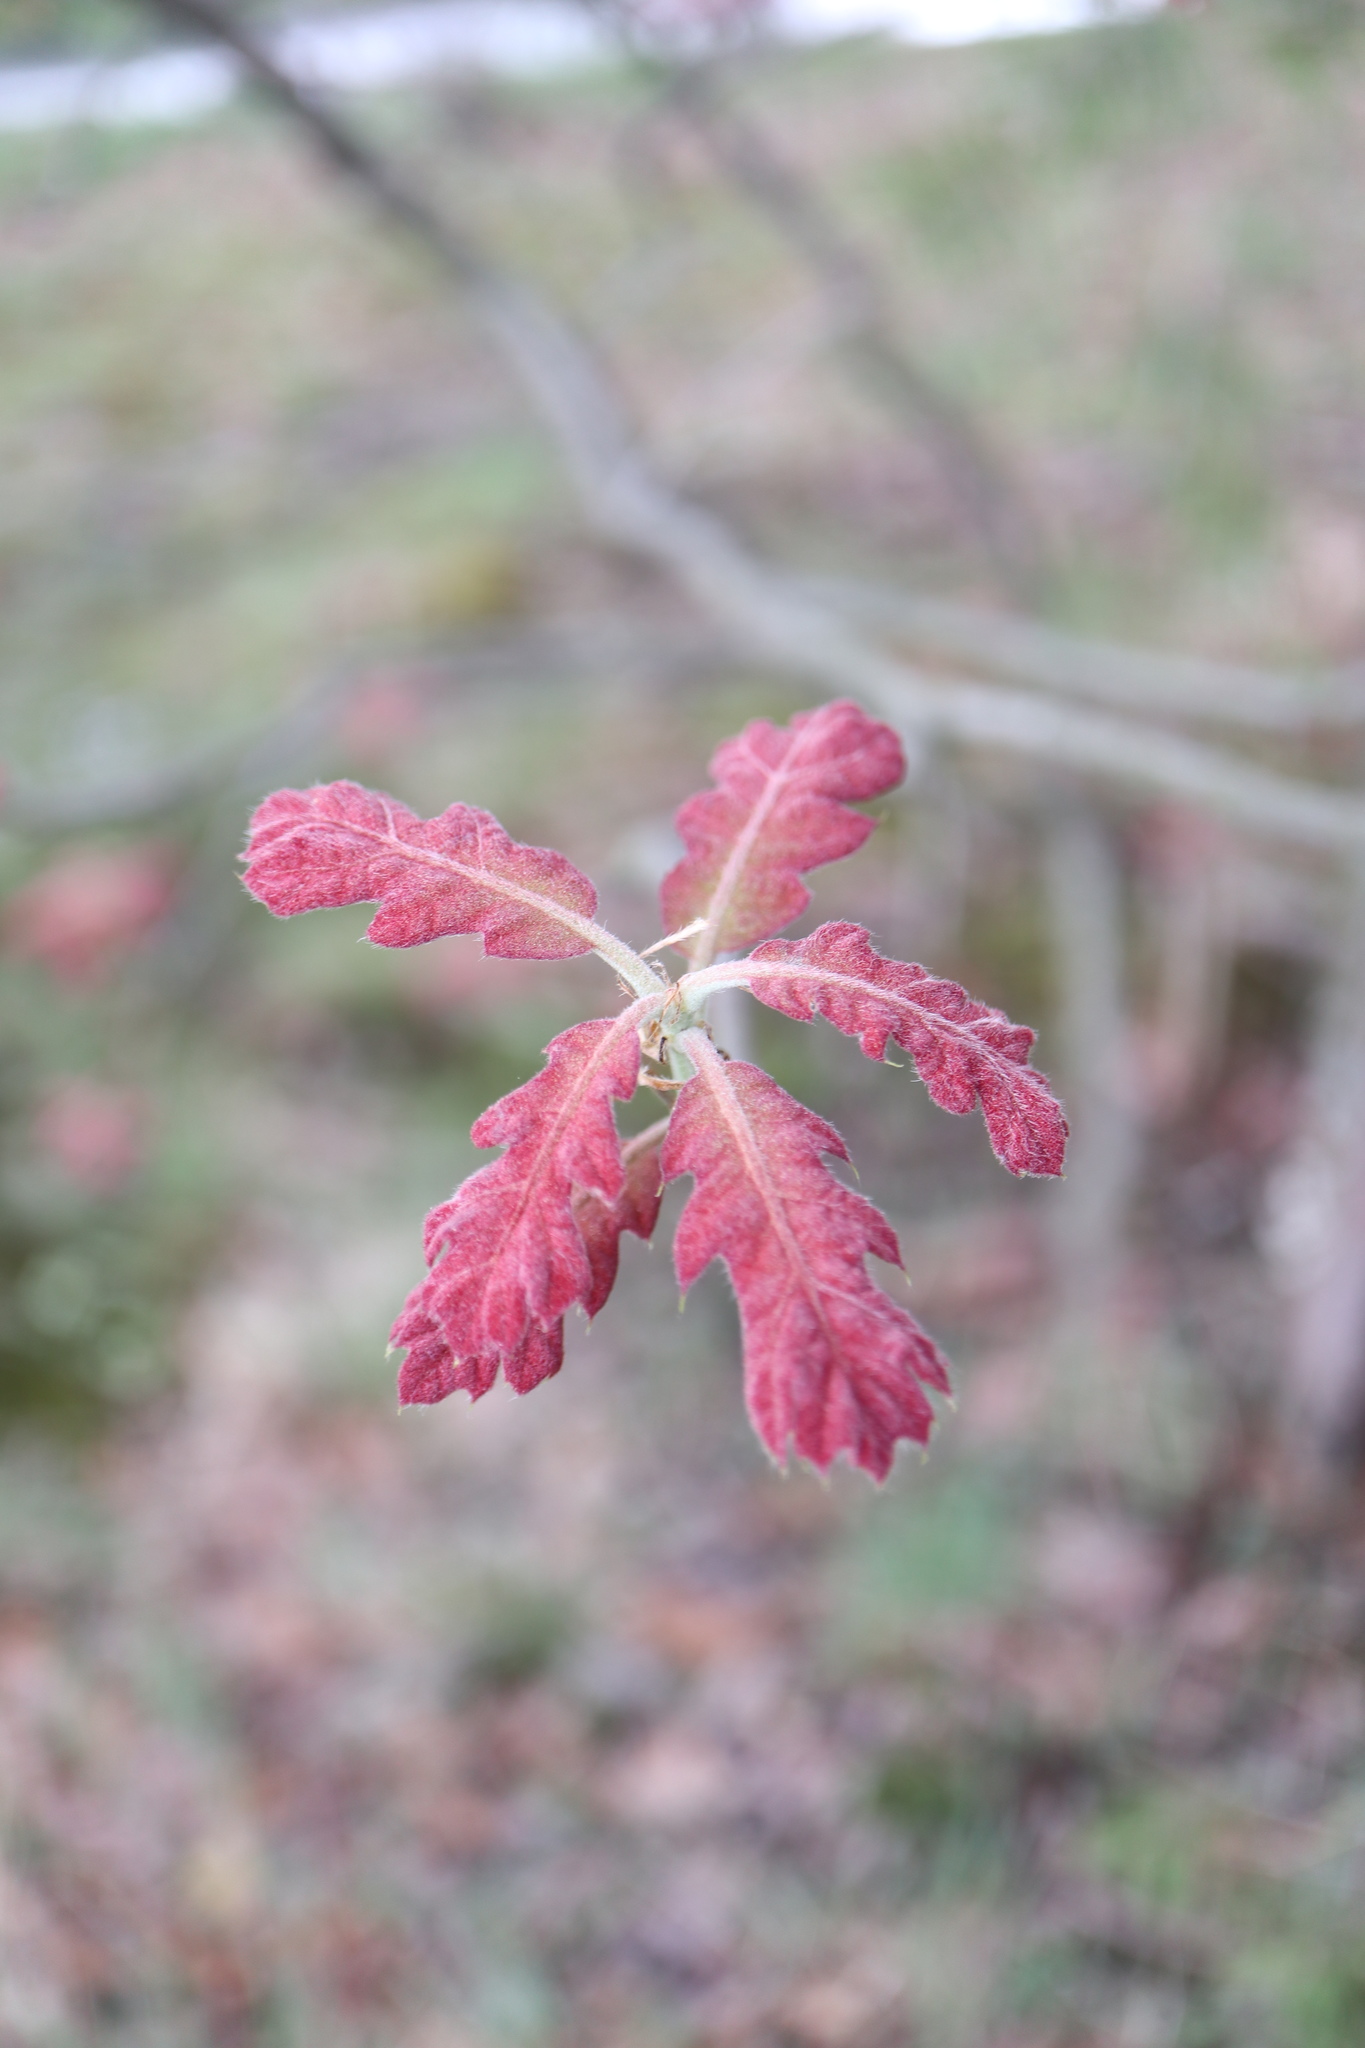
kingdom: Plantae
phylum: Tracheophyta
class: Magnoliopsida
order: Fagales
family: Fagaceae
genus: Quercus
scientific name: Quercus velutina
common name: Black oak
